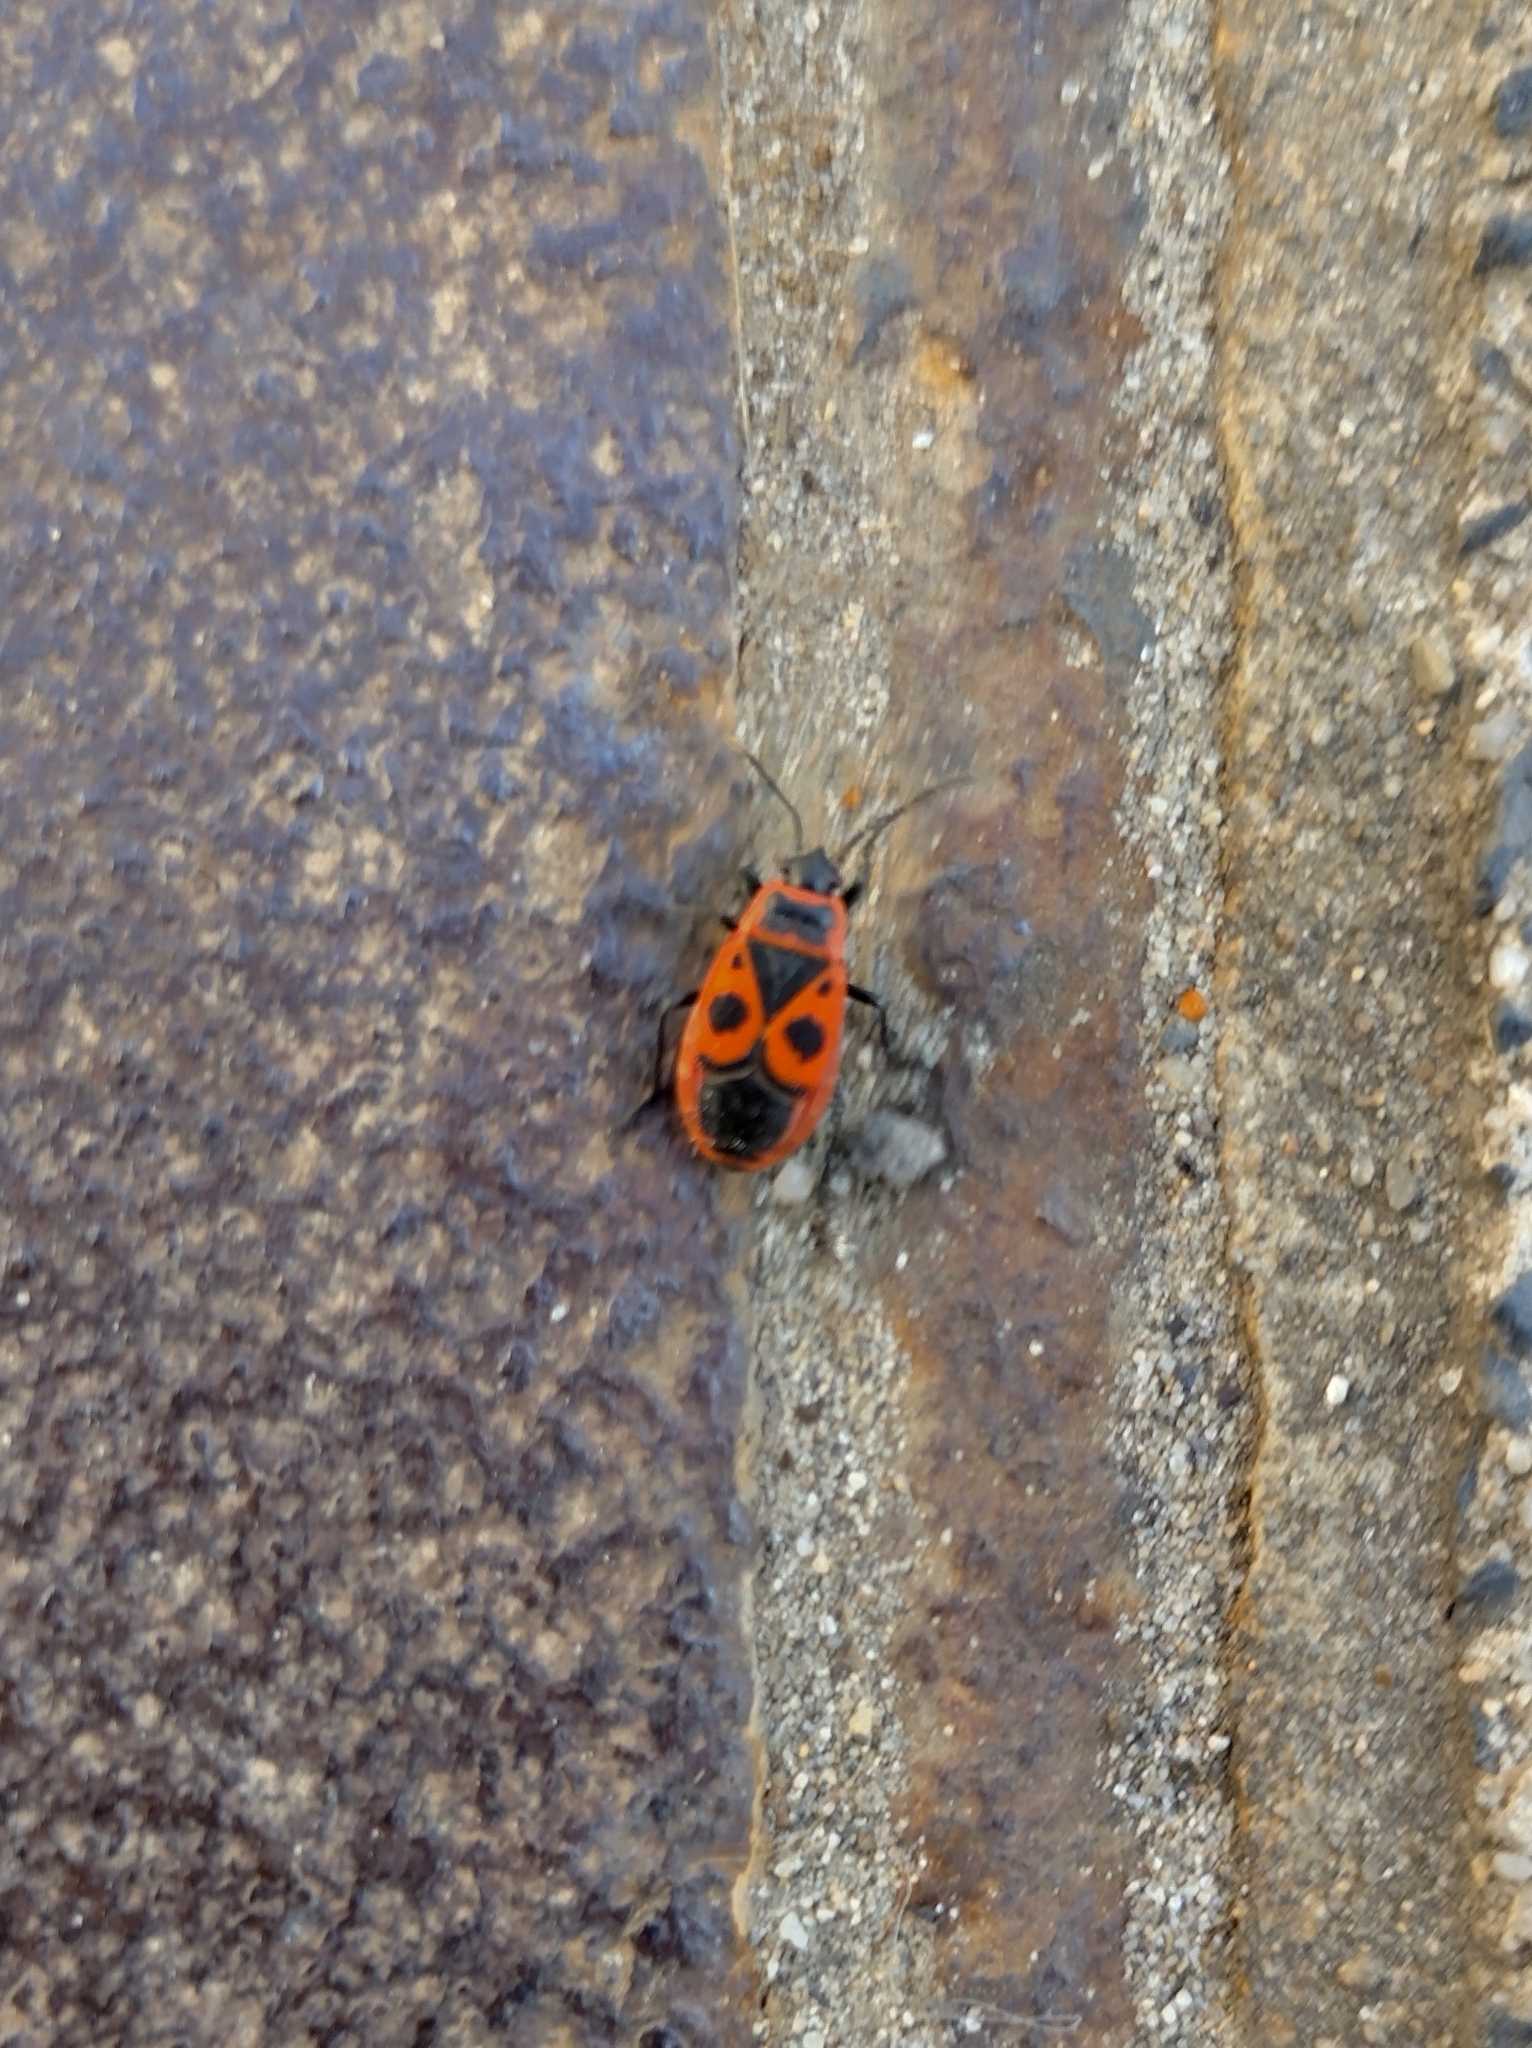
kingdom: Animalia
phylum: Arthropoda
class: Insecta
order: Hemiptera
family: Pyrrhocoridae
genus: Pyrrhocoris
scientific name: Pyrrhocoris apterus
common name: Firebug
